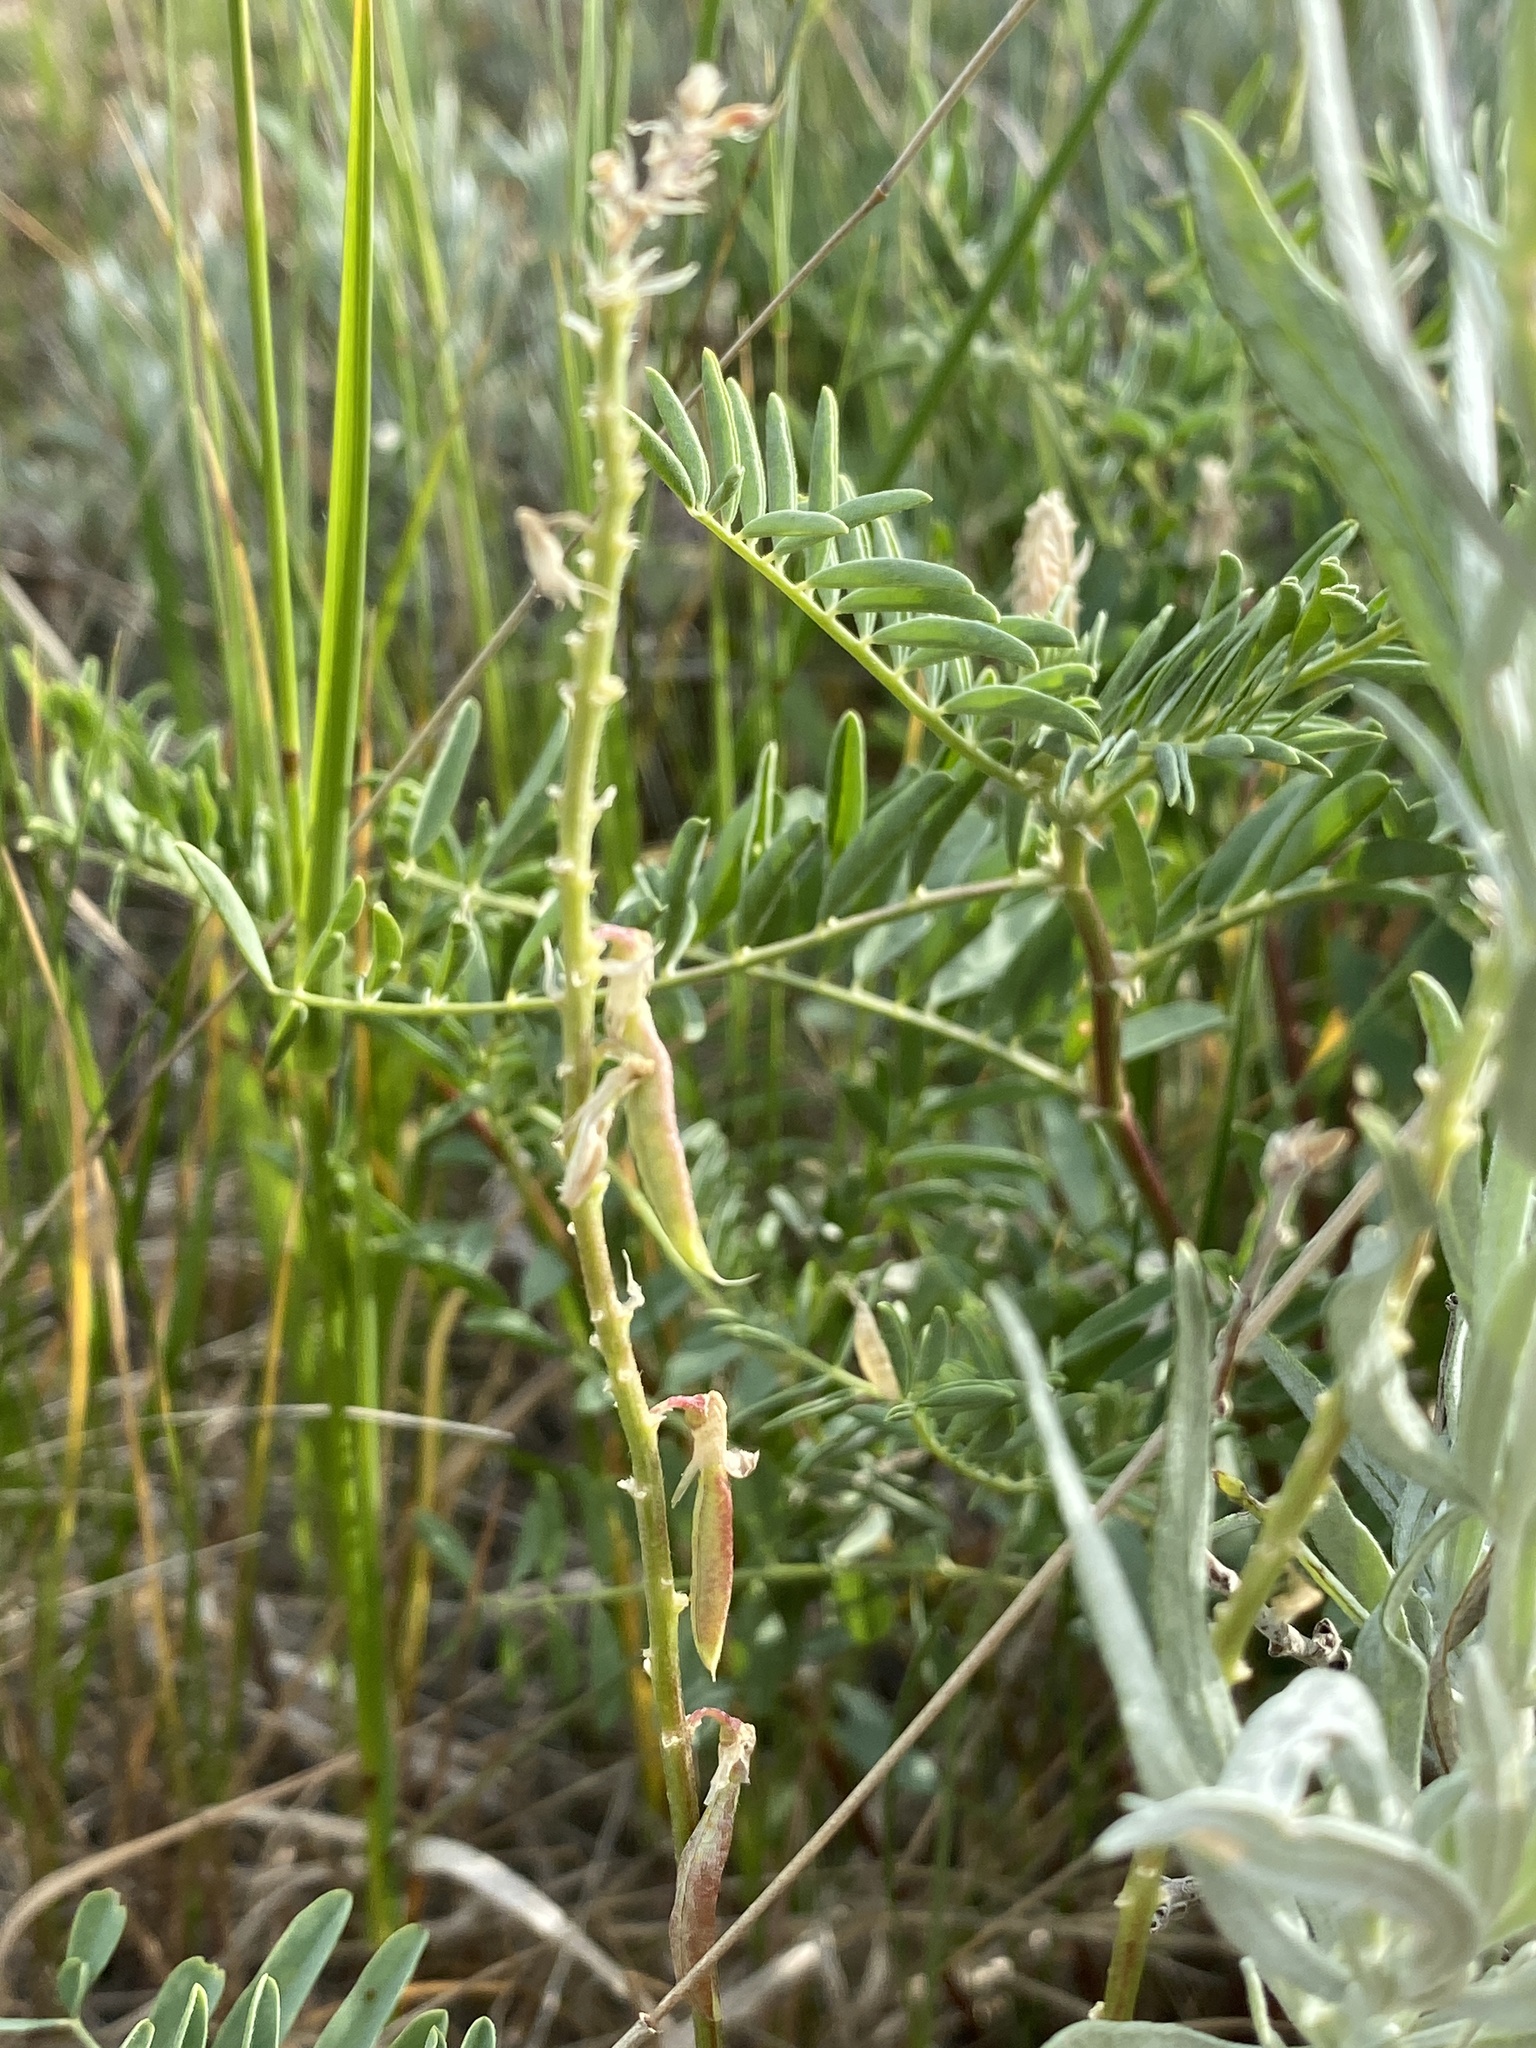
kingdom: Plantae
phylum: Tracheophyta
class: Magnoliopsida
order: Fabales
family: Fabaceae
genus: Astragalus
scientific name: Astragalus bisulcatus
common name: Two-groove milk-vetch
